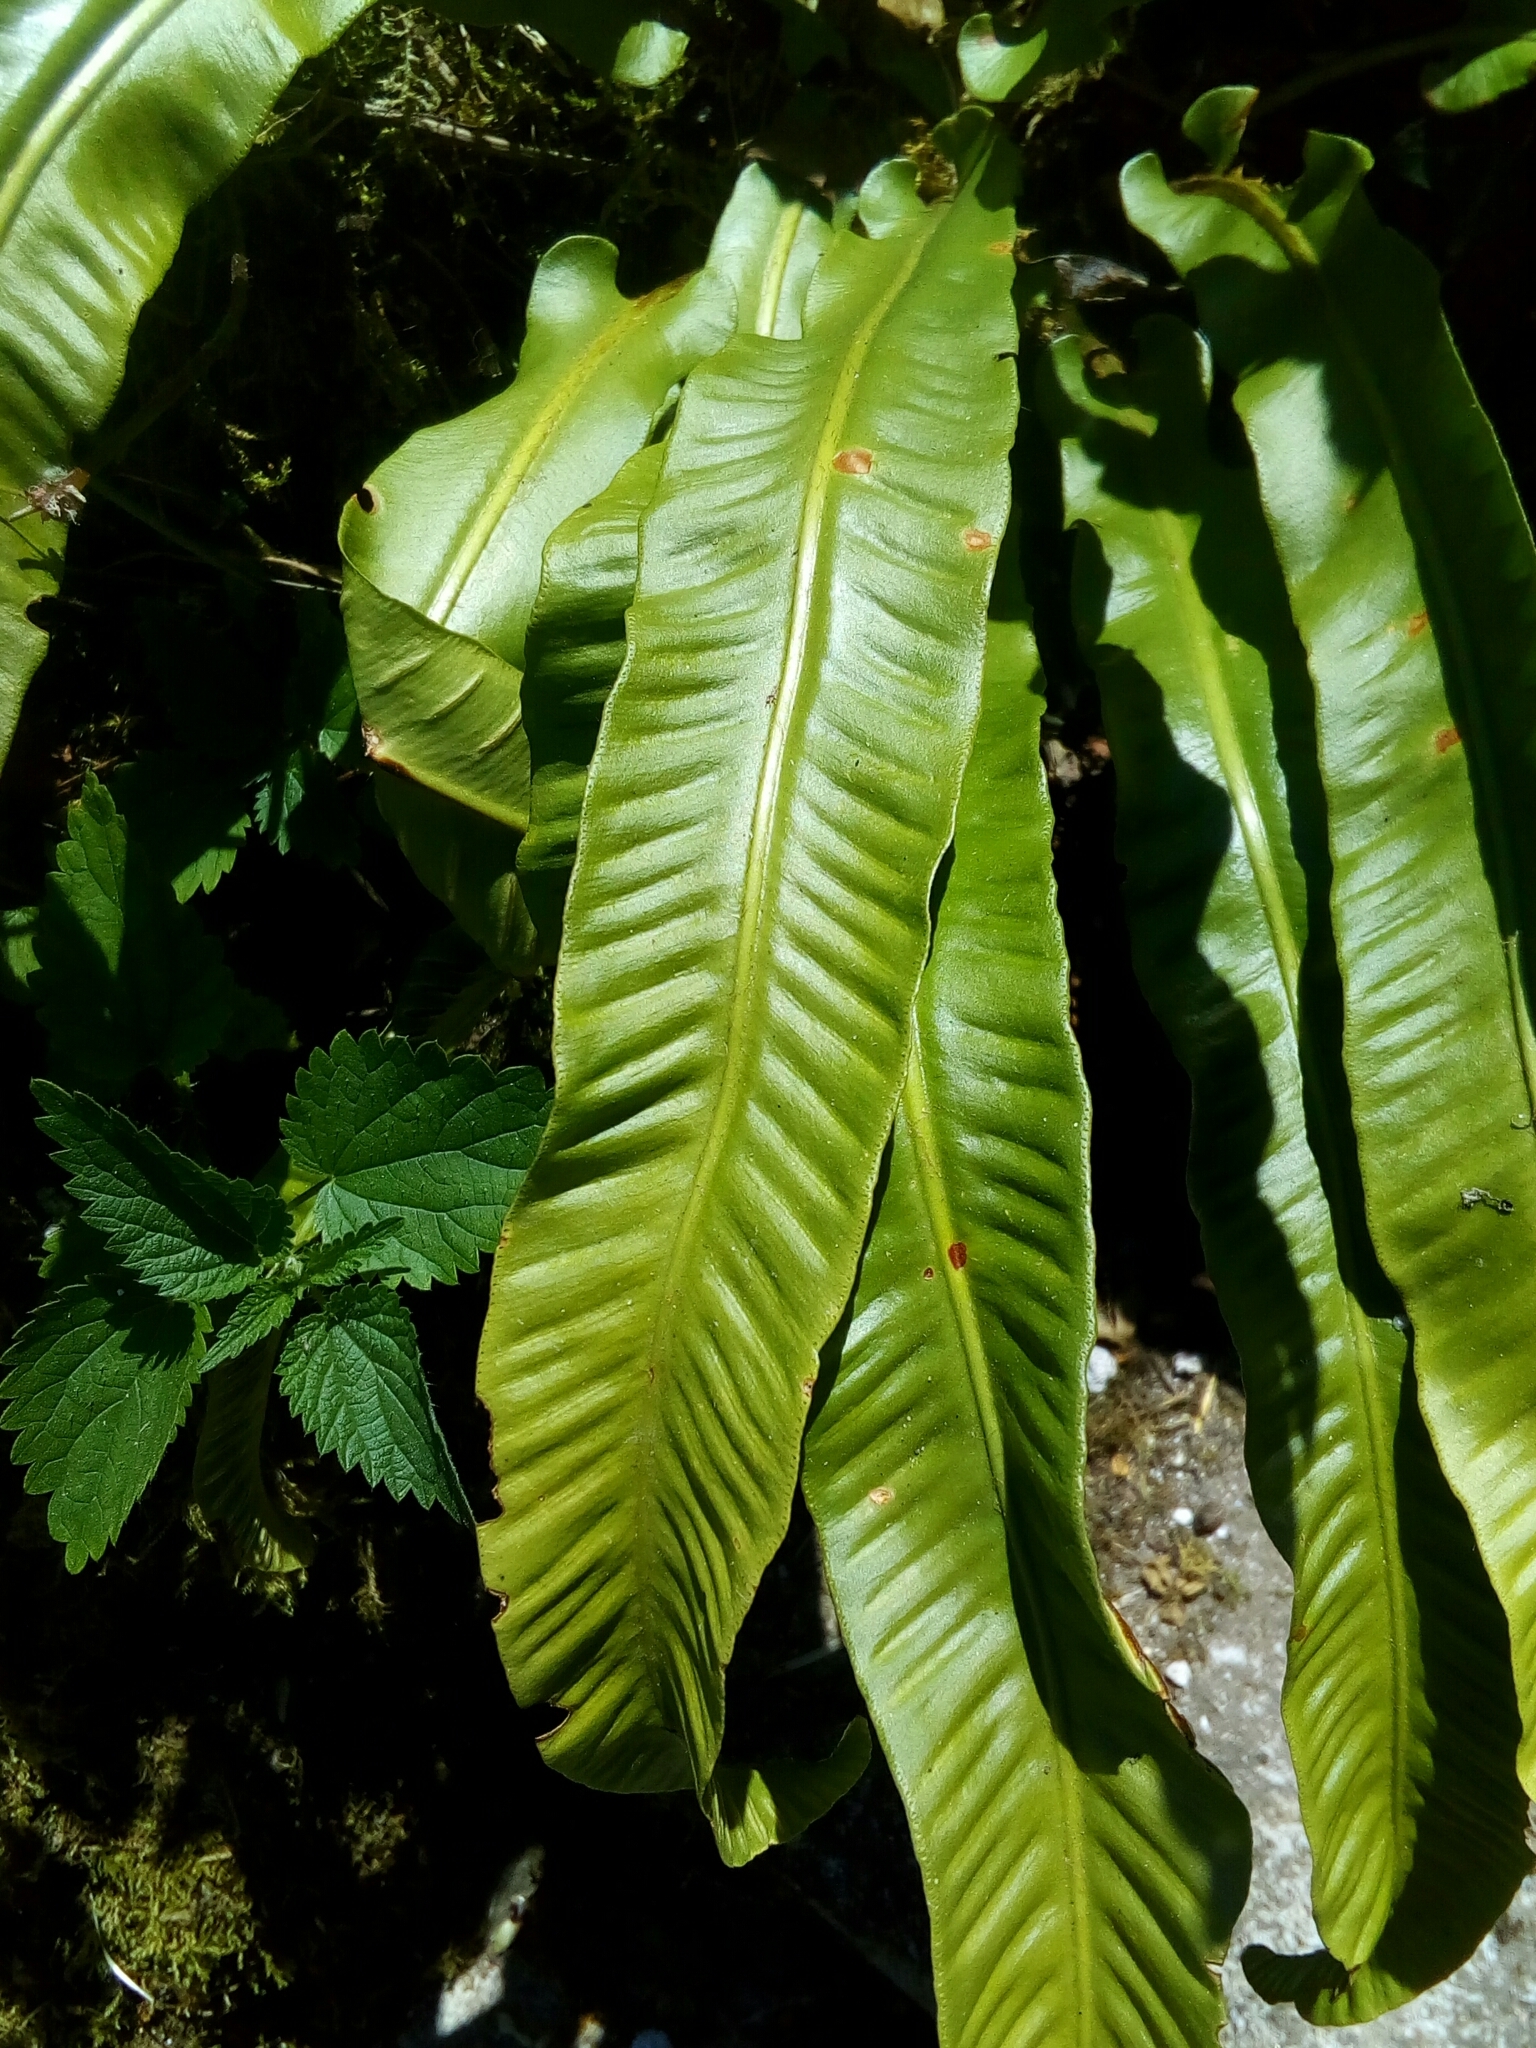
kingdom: Plantae
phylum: Tracheophyta
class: Polypodiopsida
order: Polypodiales
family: Aspleniaceae
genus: Asplenium
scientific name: Asplenium scolopendrium
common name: Hart's-tongue fern
